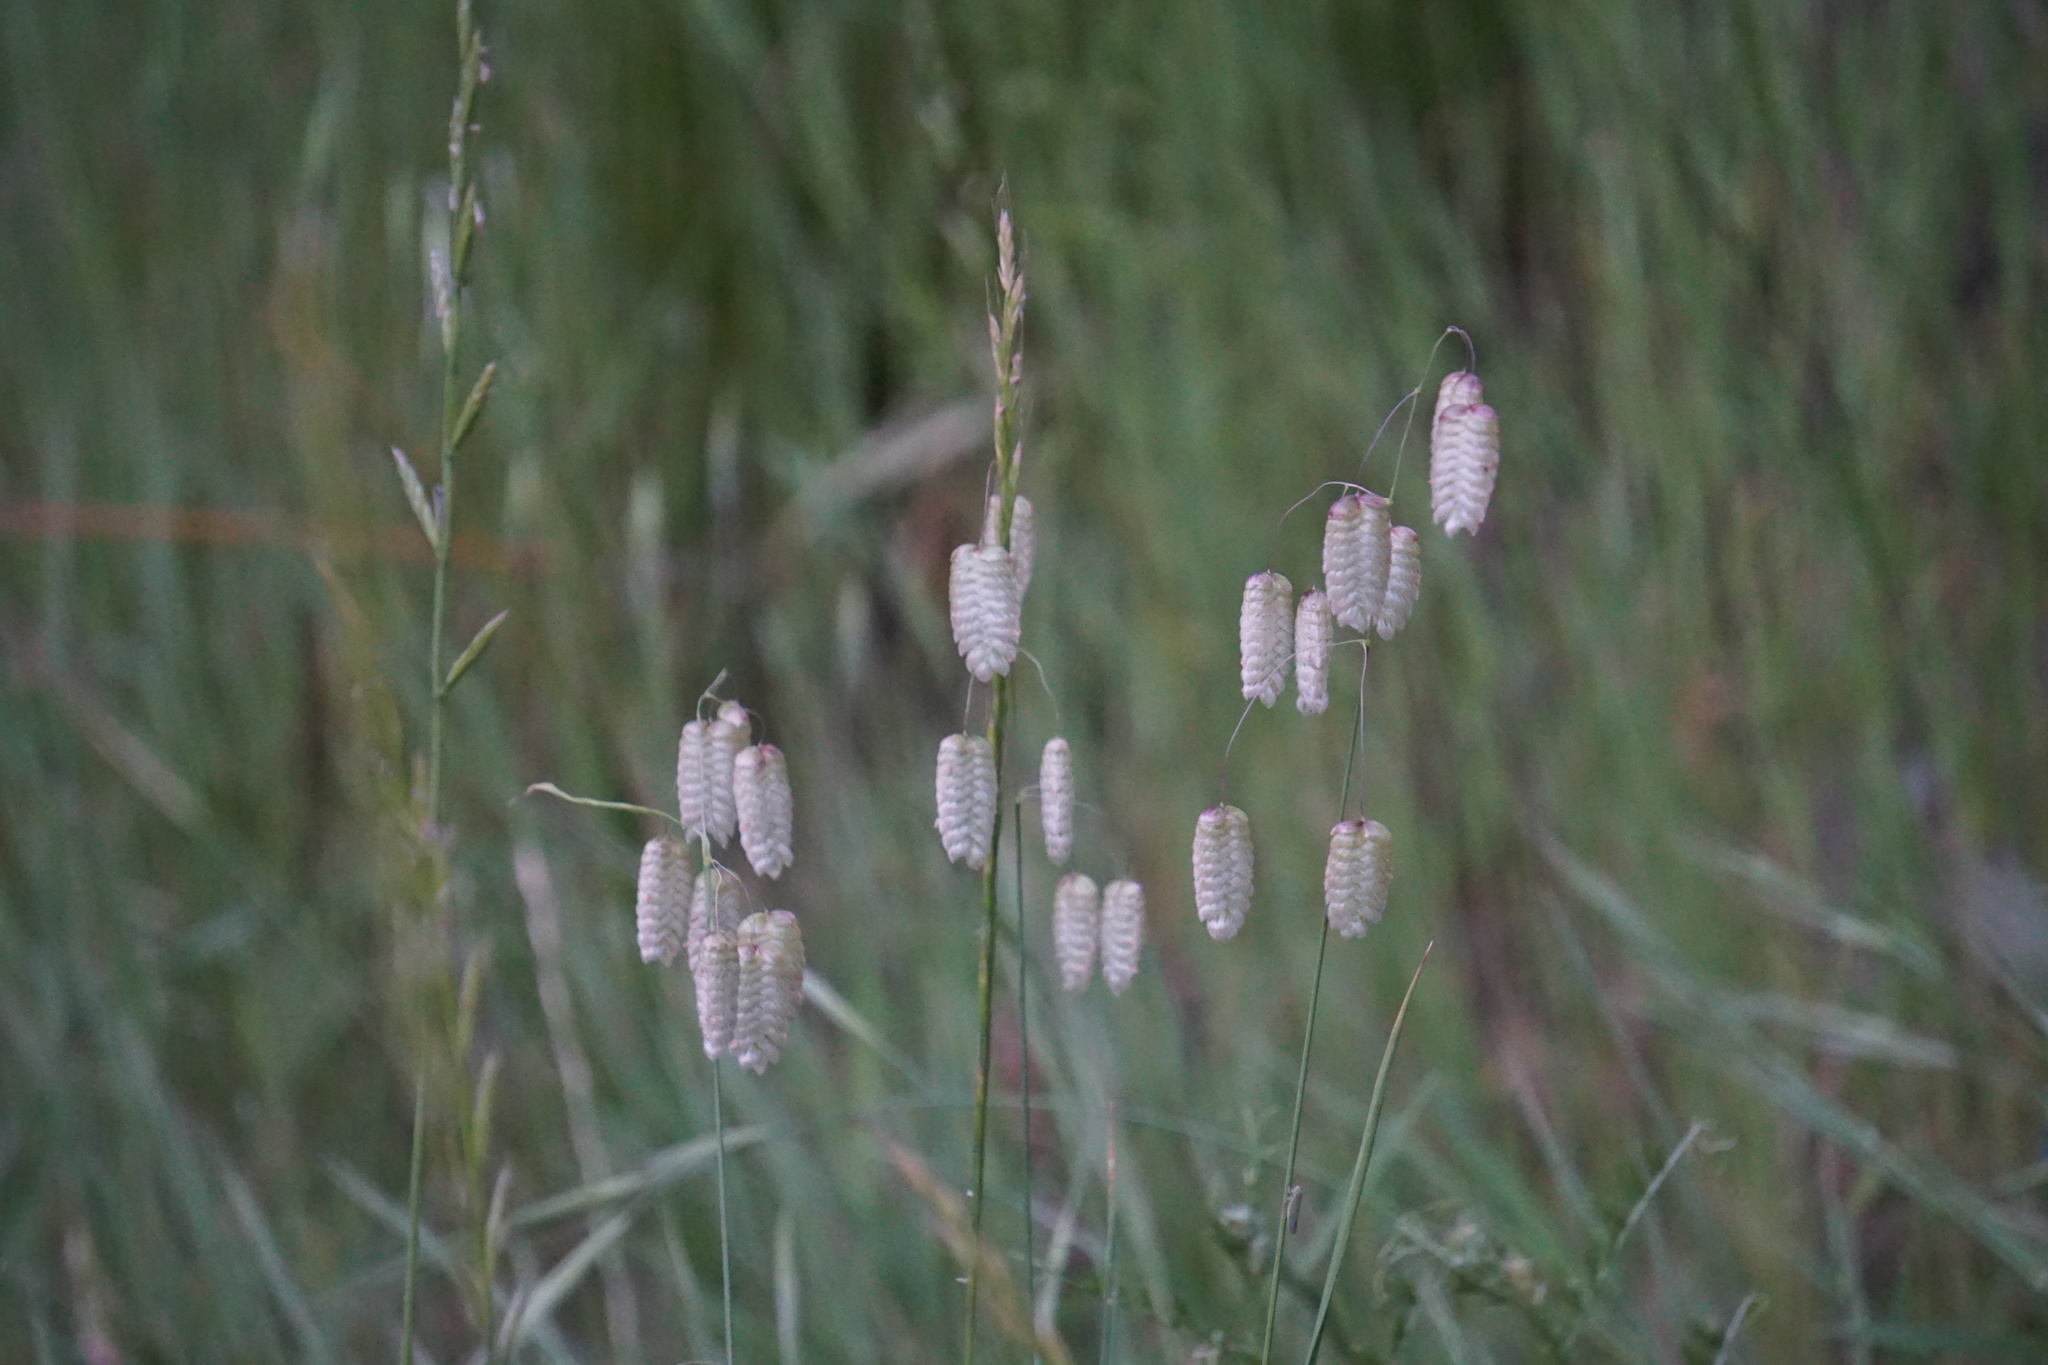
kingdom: Plantae
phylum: Tracheophyta
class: Liliopsida
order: Poales
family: Poaceae
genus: Briza
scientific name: Briza maxima
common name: Big quakinggrass
